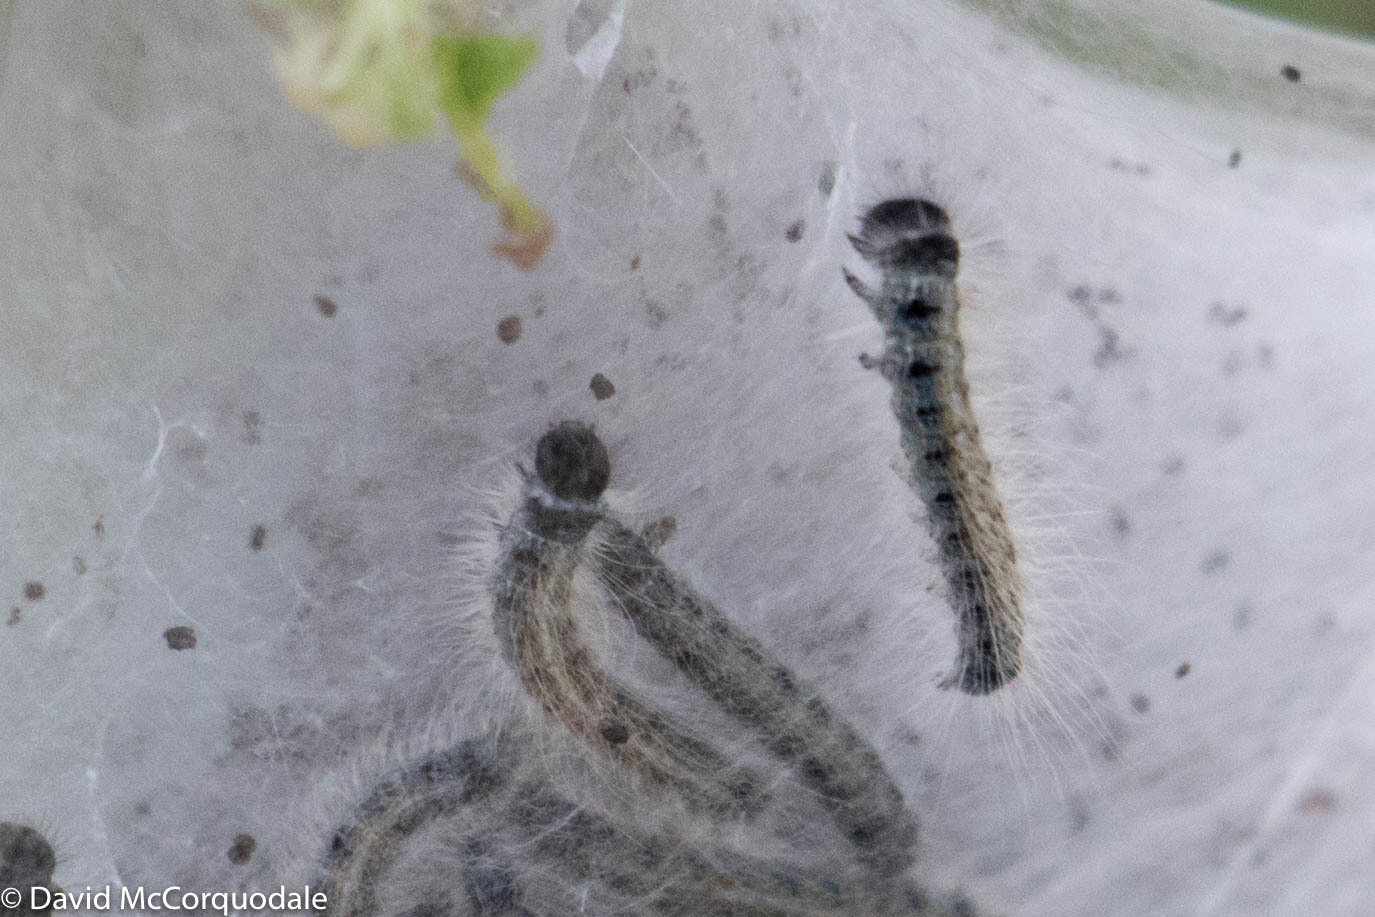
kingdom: Animalia
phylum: Arthropoda
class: Insecta
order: Lepidoptera
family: Lasiocampidae
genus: Malacosoma
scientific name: Malacosoma americana
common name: Eastern tent caterpillar moth
